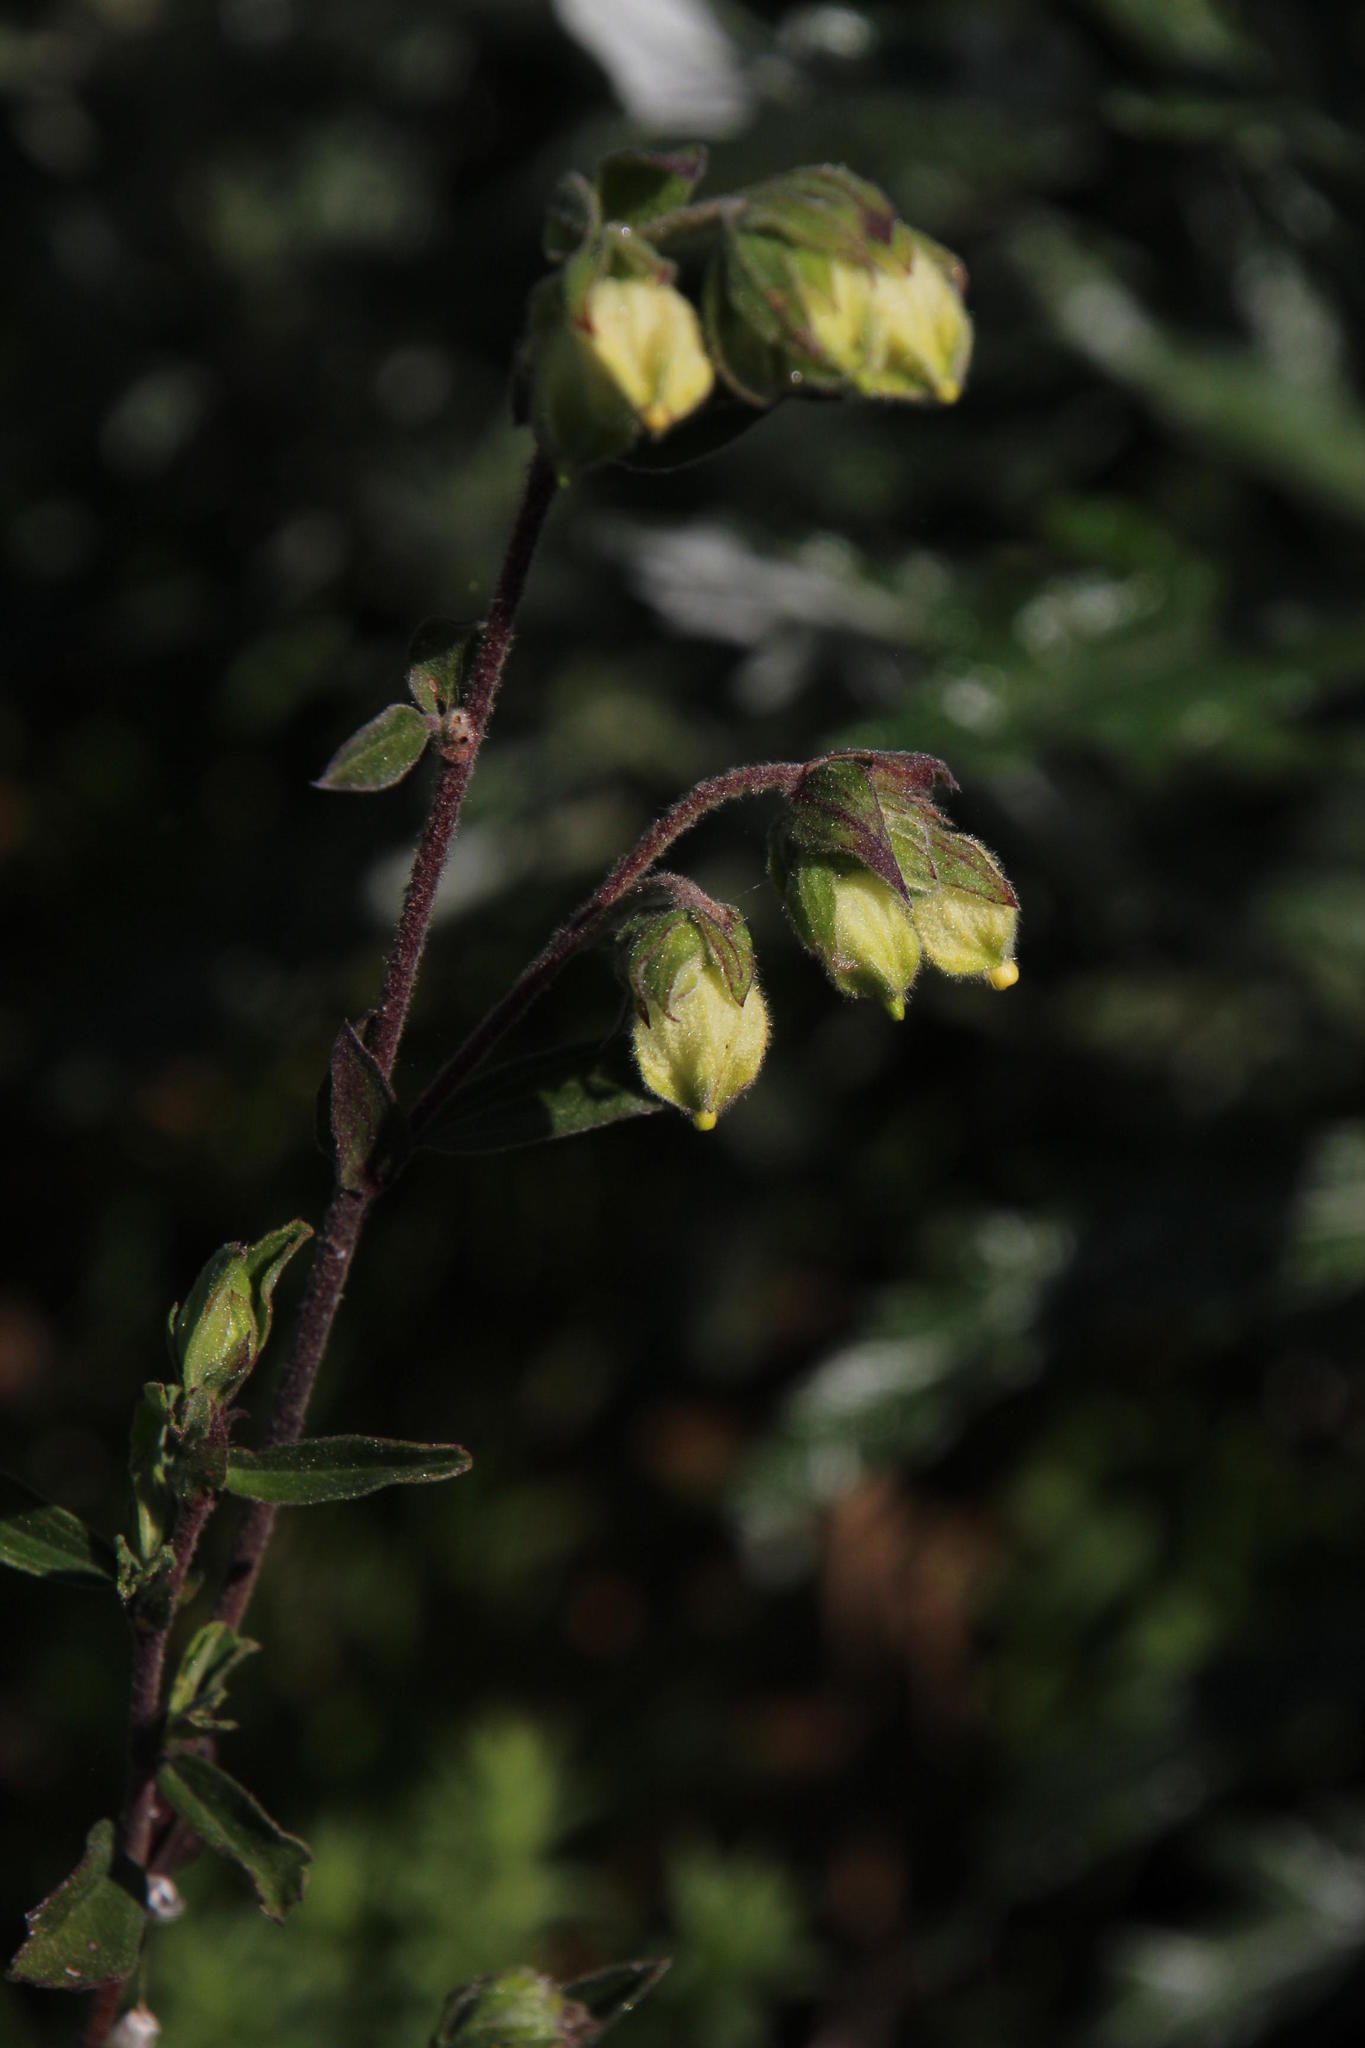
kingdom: Plantae
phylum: Tracheophyta
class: Magnoliopsida
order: Malvales
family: Malvaceae
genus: Hermannia
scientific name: Hermannia hyssopifolia
